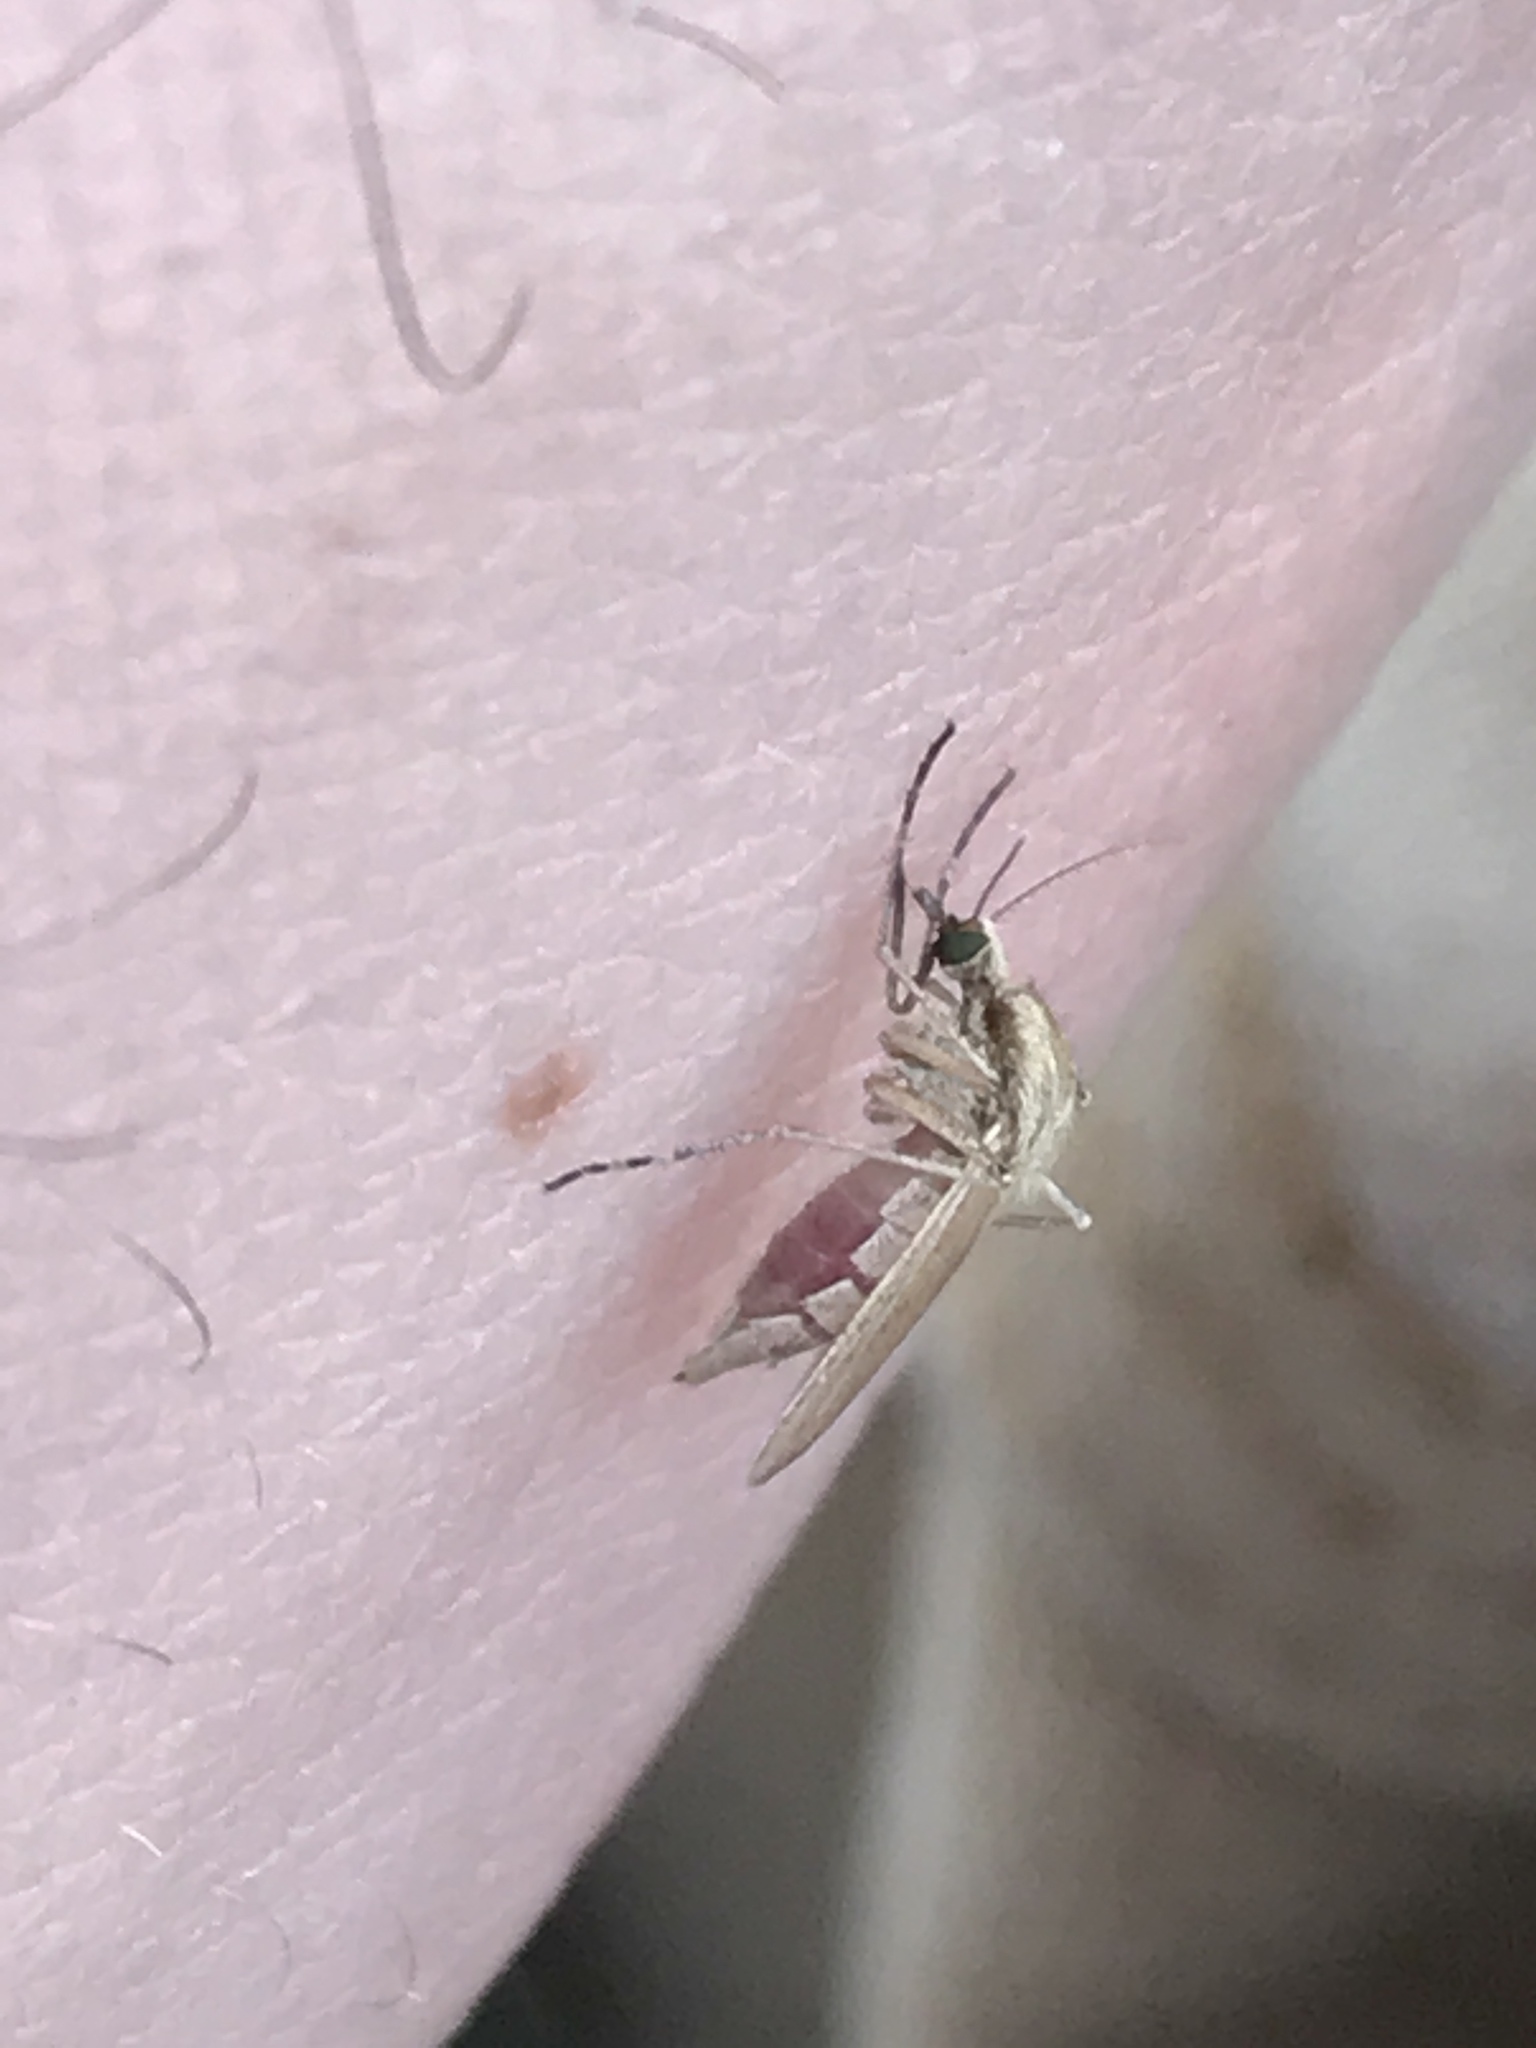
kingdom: Animalia
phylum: Arthropoda
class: Insecta
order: Diptera
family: Culicidae
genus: Aedes
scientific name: Aedes dorsalis
